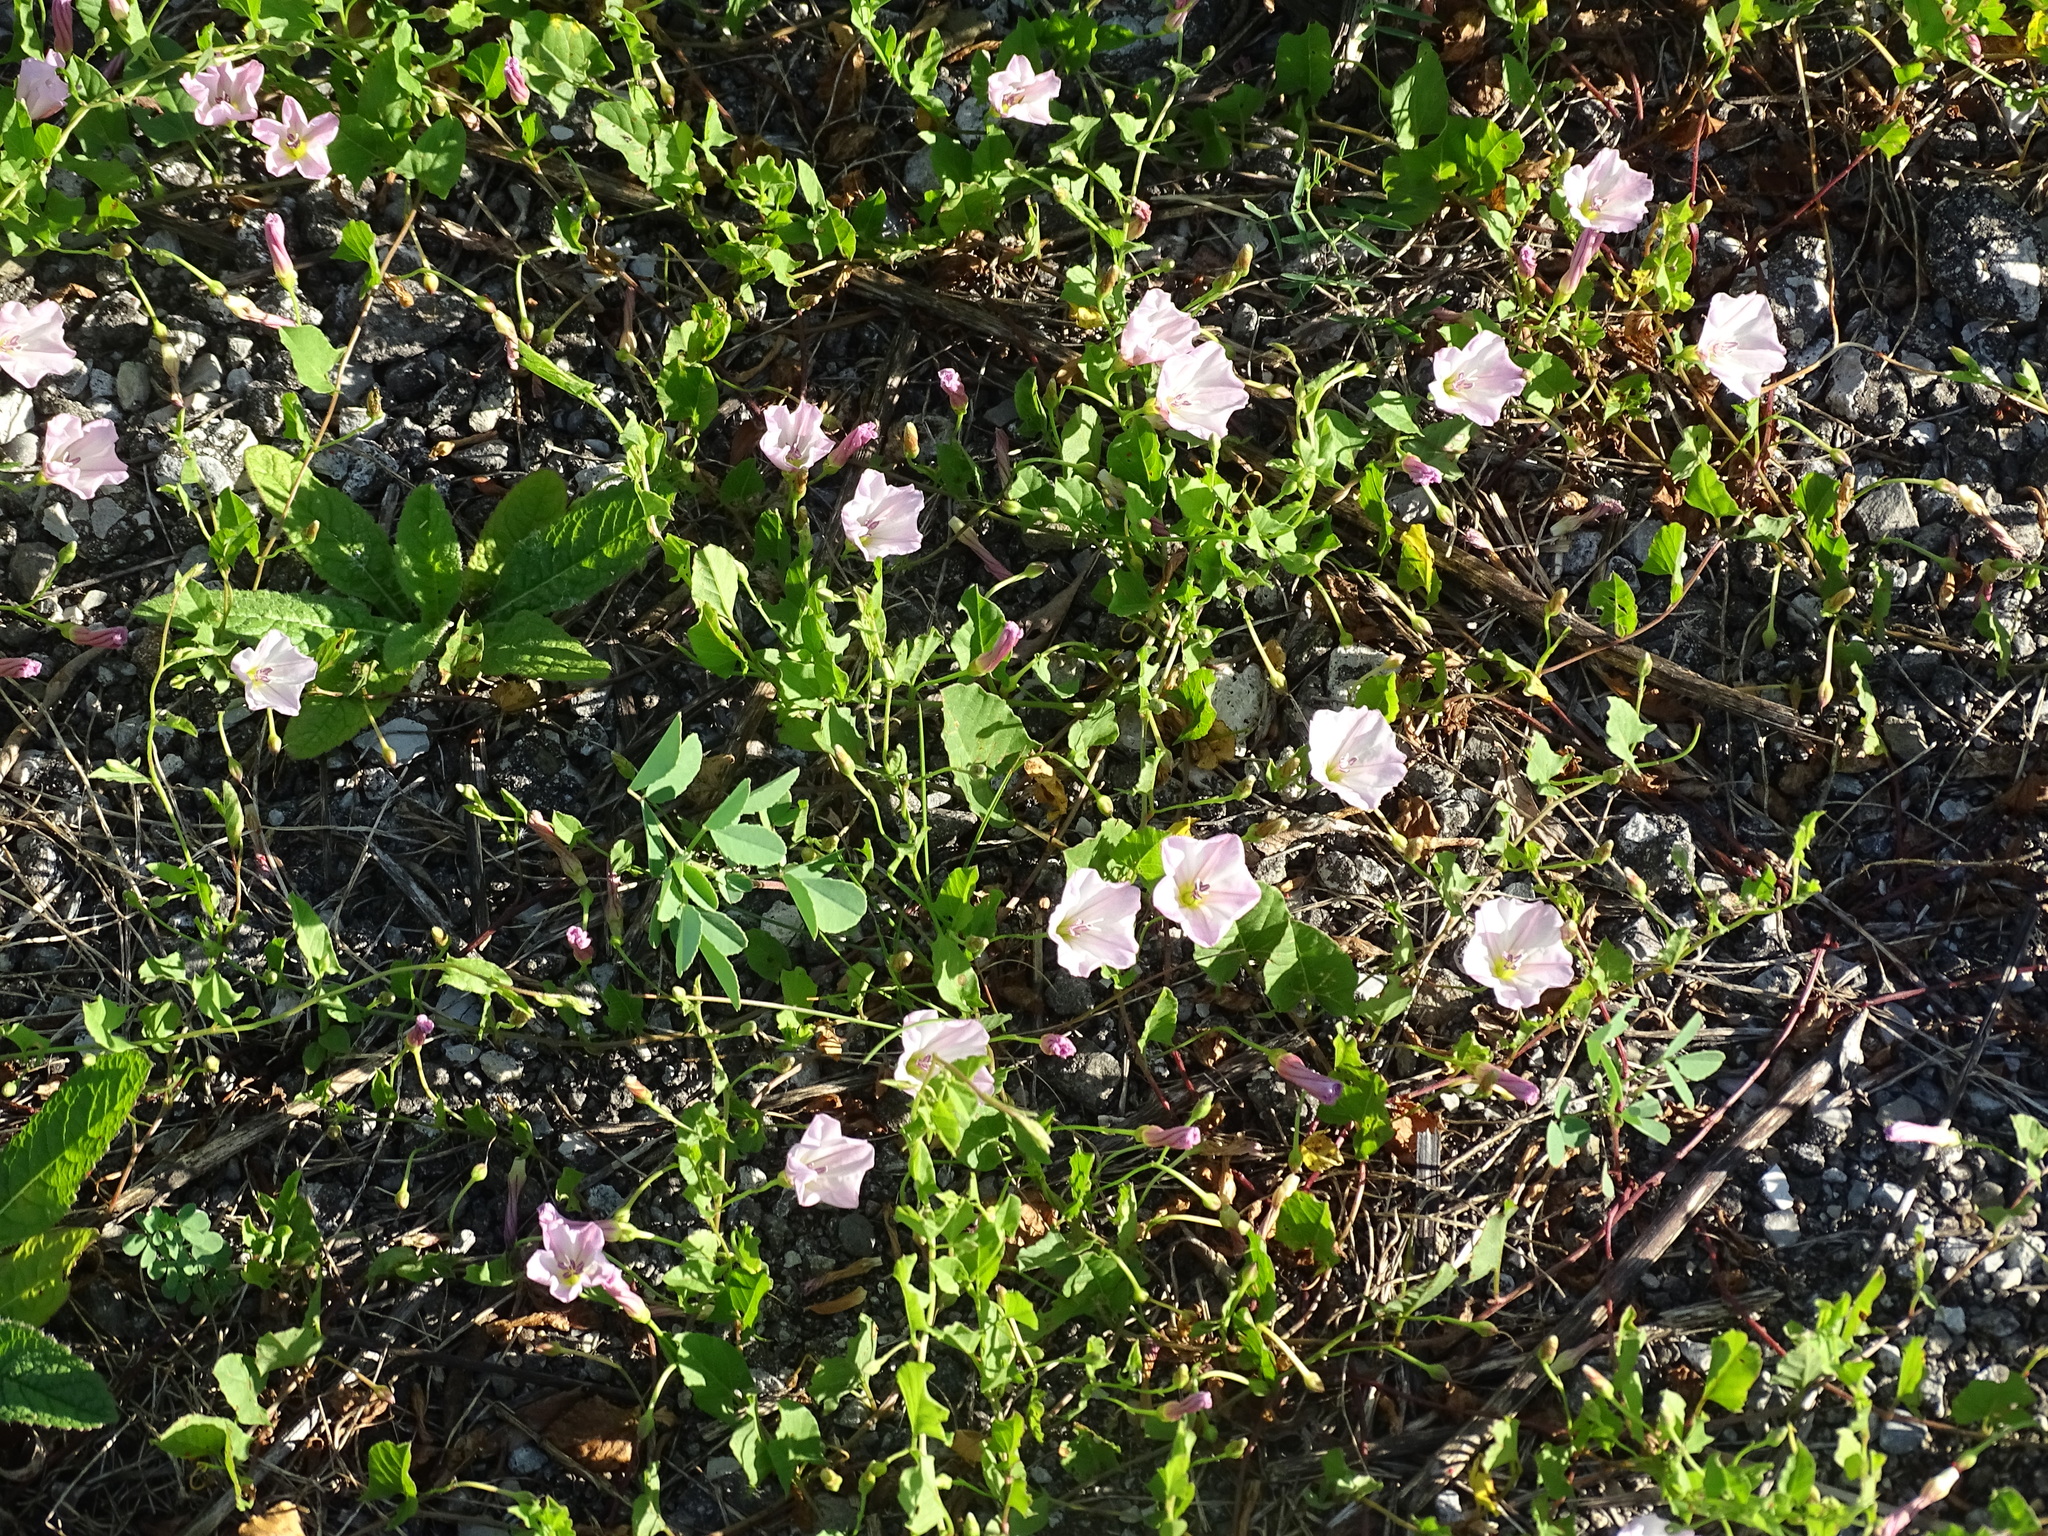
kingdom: Plantae
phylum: Tracheophyta
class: Magnoliopsida
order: Solanales
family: Convolvulaceae
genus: Convolvulus
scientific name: Convolvulus arvensis
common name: Field bindweed
